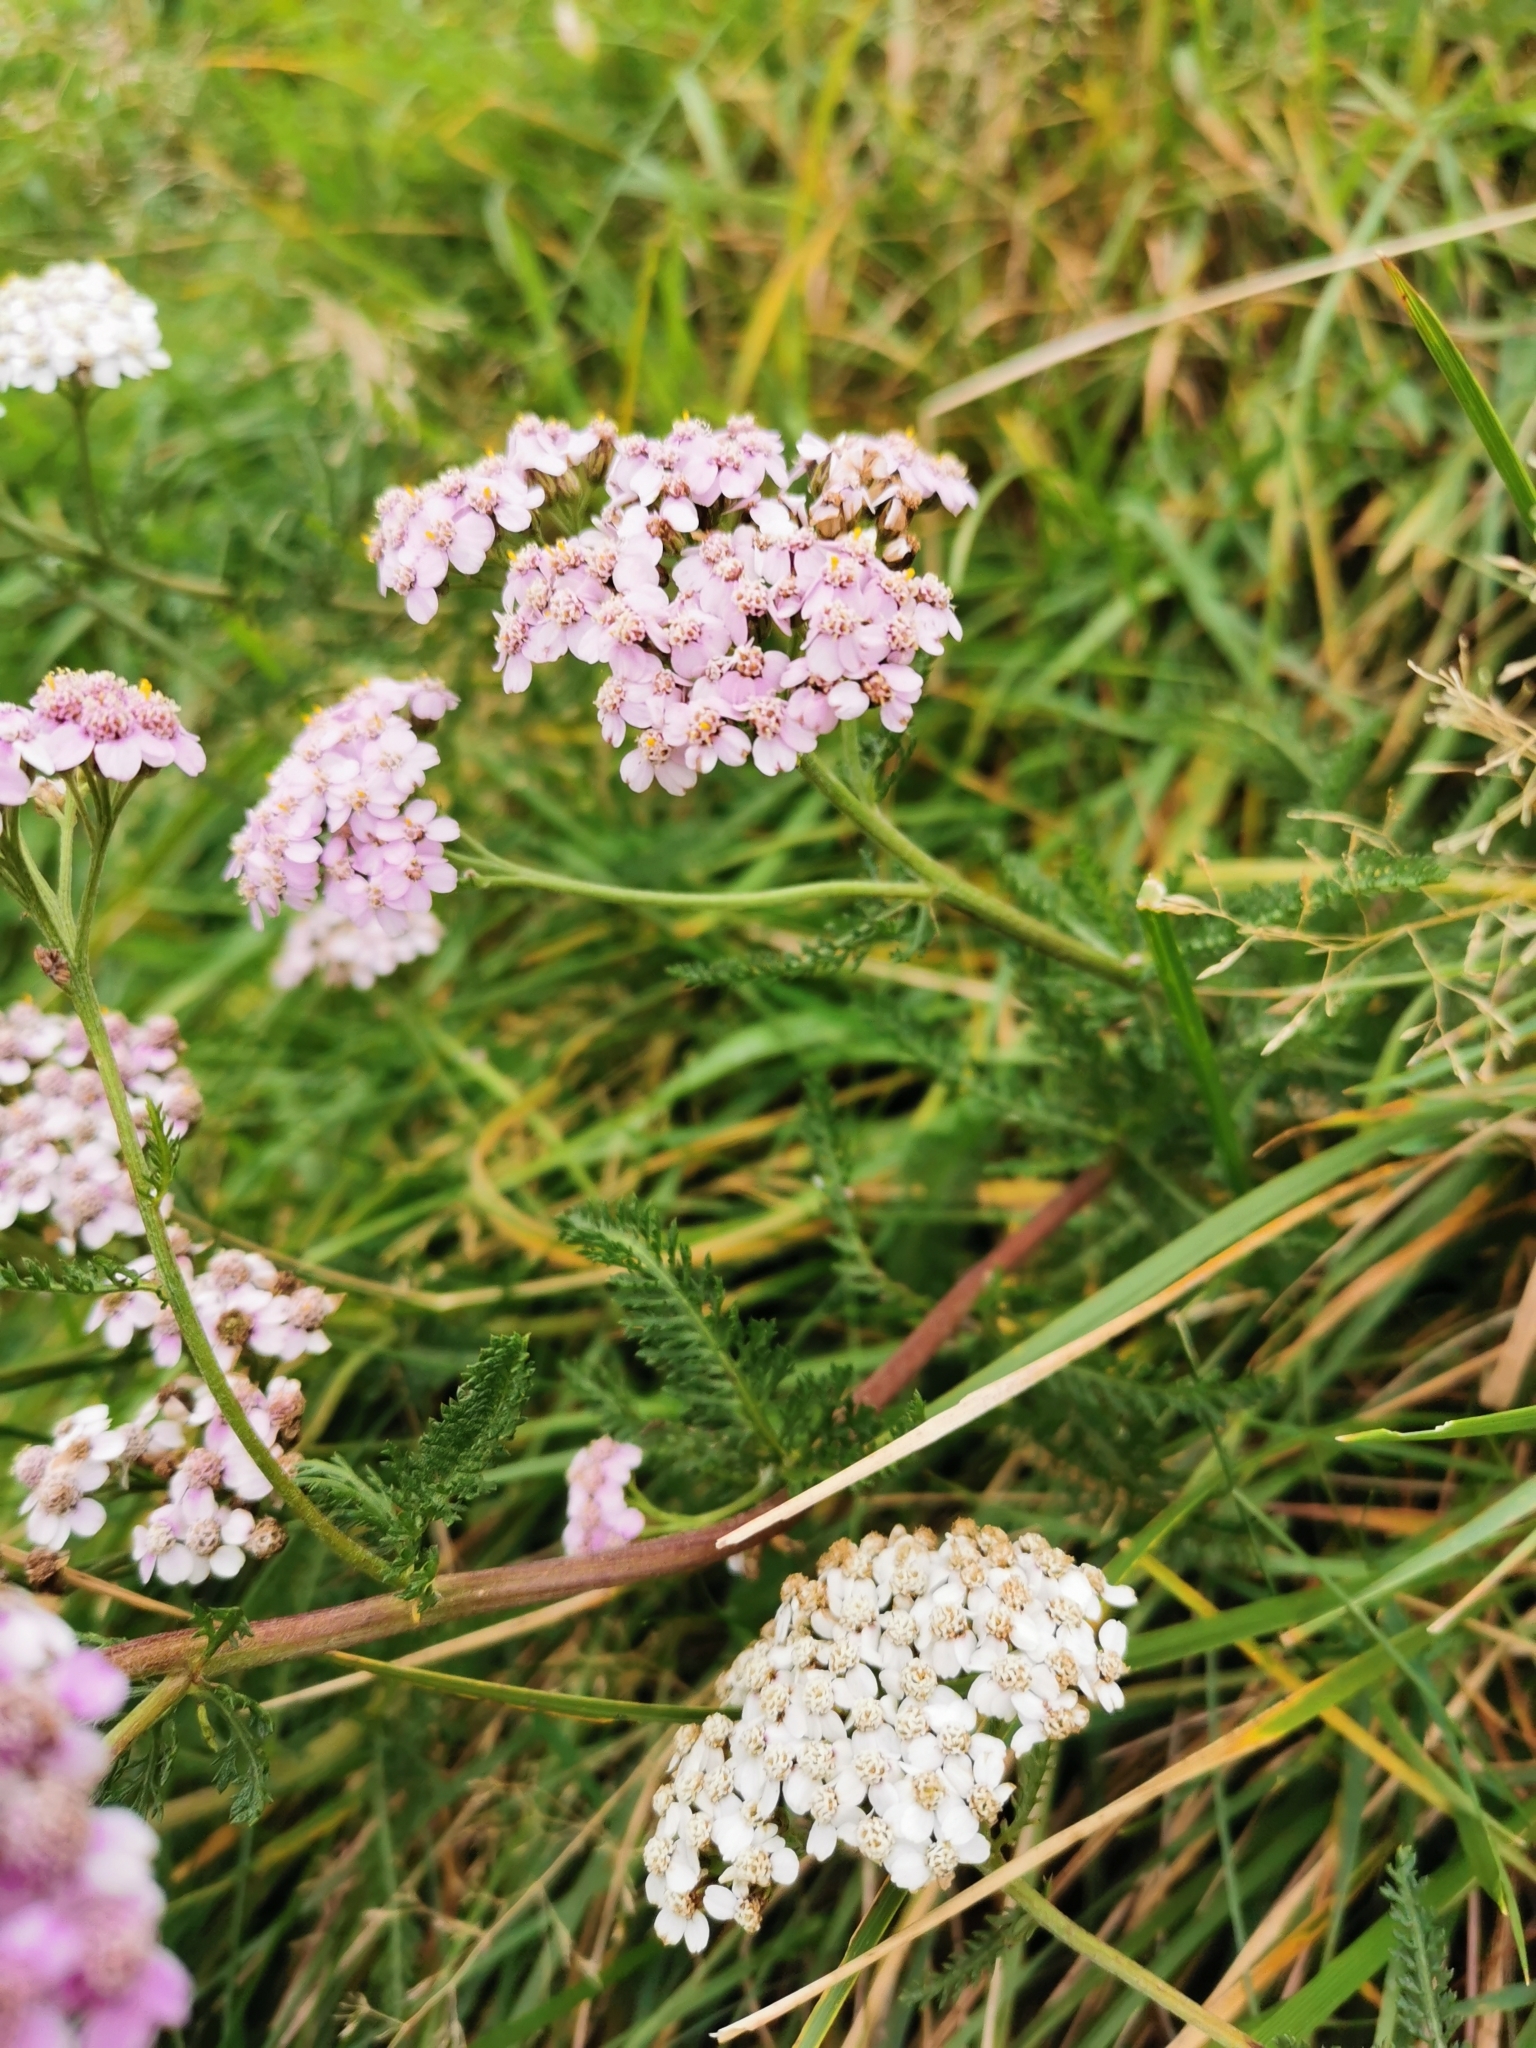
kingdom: Plantae
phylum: Tracheophyta
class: Magnoliopsida
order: Asterales
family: Asteraceae
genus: Achillea
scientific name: Achillea millefolium
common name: Yarrow
